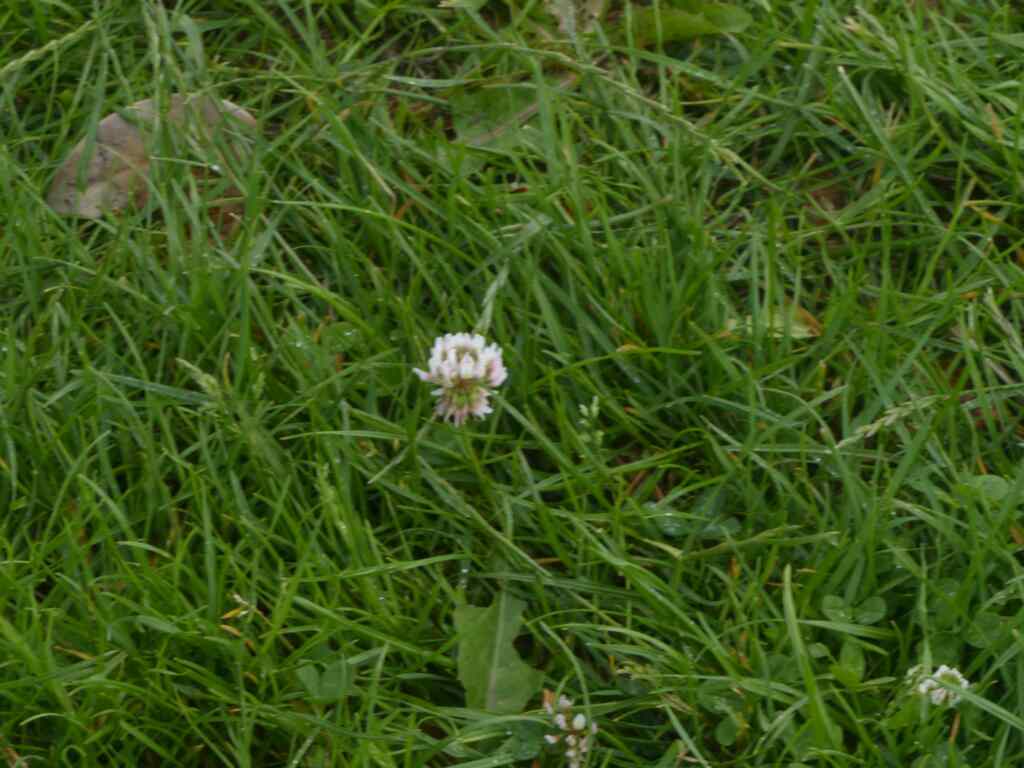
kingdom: Plantae
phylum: Tracheophyta
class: Magnoliopsida
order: Fabales
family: Fabaceae
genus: Trifolium
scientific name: Trifolium repens
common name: White clover
